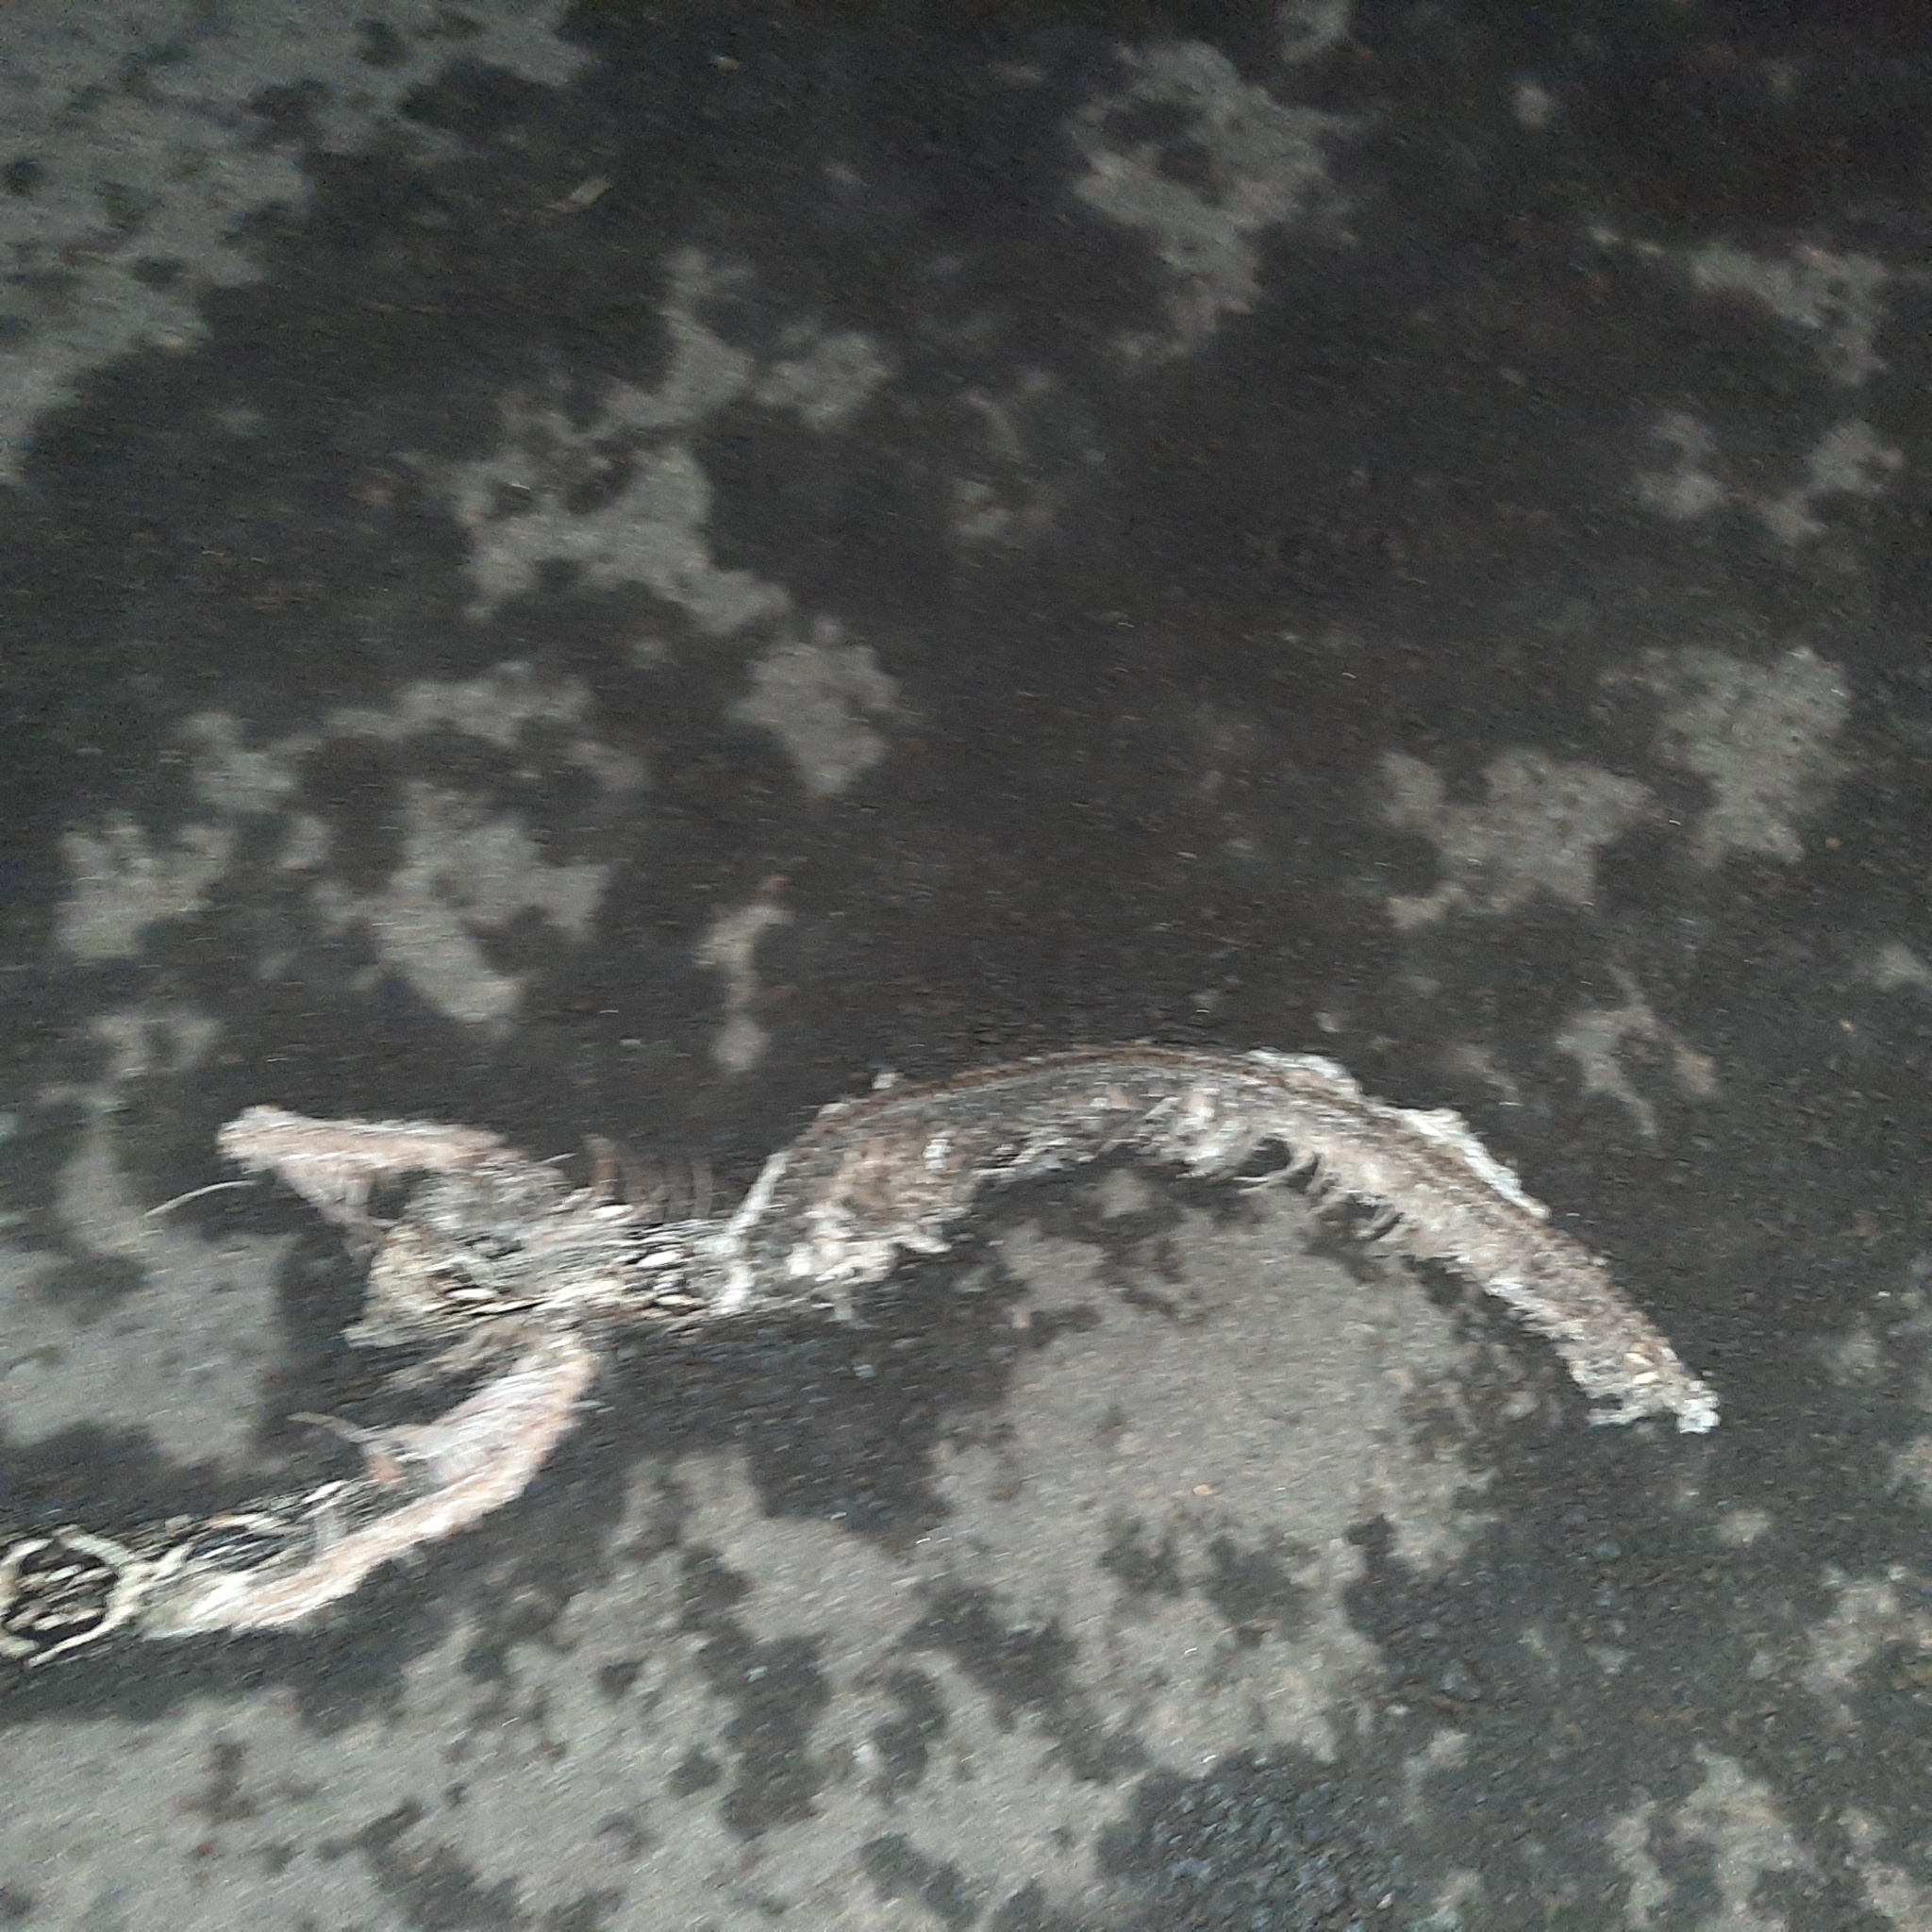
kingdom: Animalia
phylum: Chordata
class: Squamata
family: Boidae
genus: Boa
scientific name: Boa imperator
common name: Central american boa
